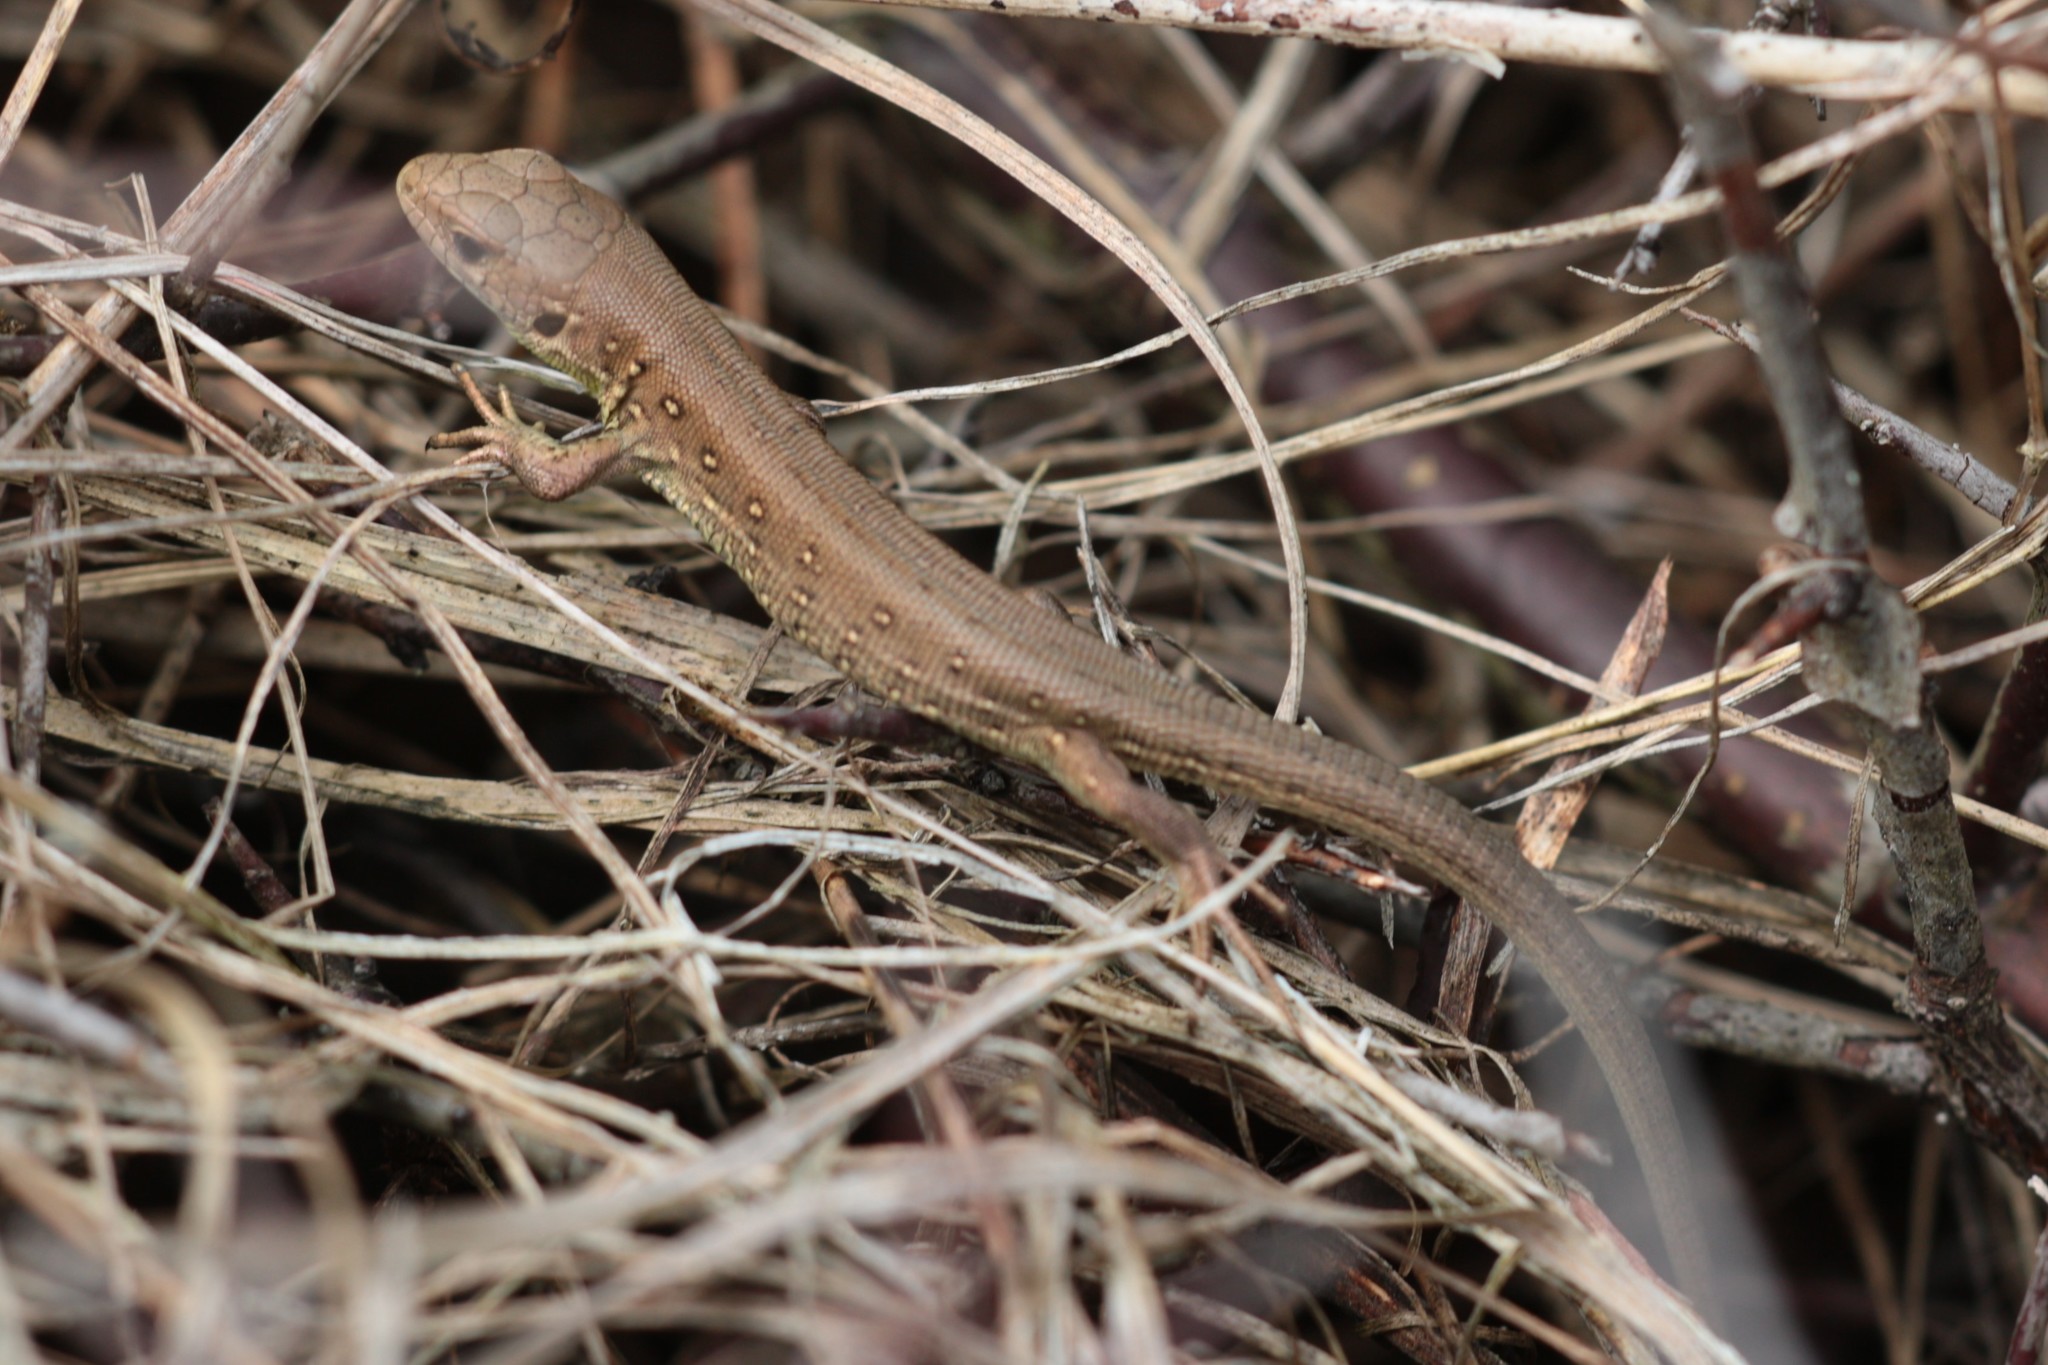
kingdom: Animalia
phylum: Chordata
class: Squamata
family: Lacertidae
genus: Lacerta
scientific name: Lacerta agilis
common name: Sand lizard
